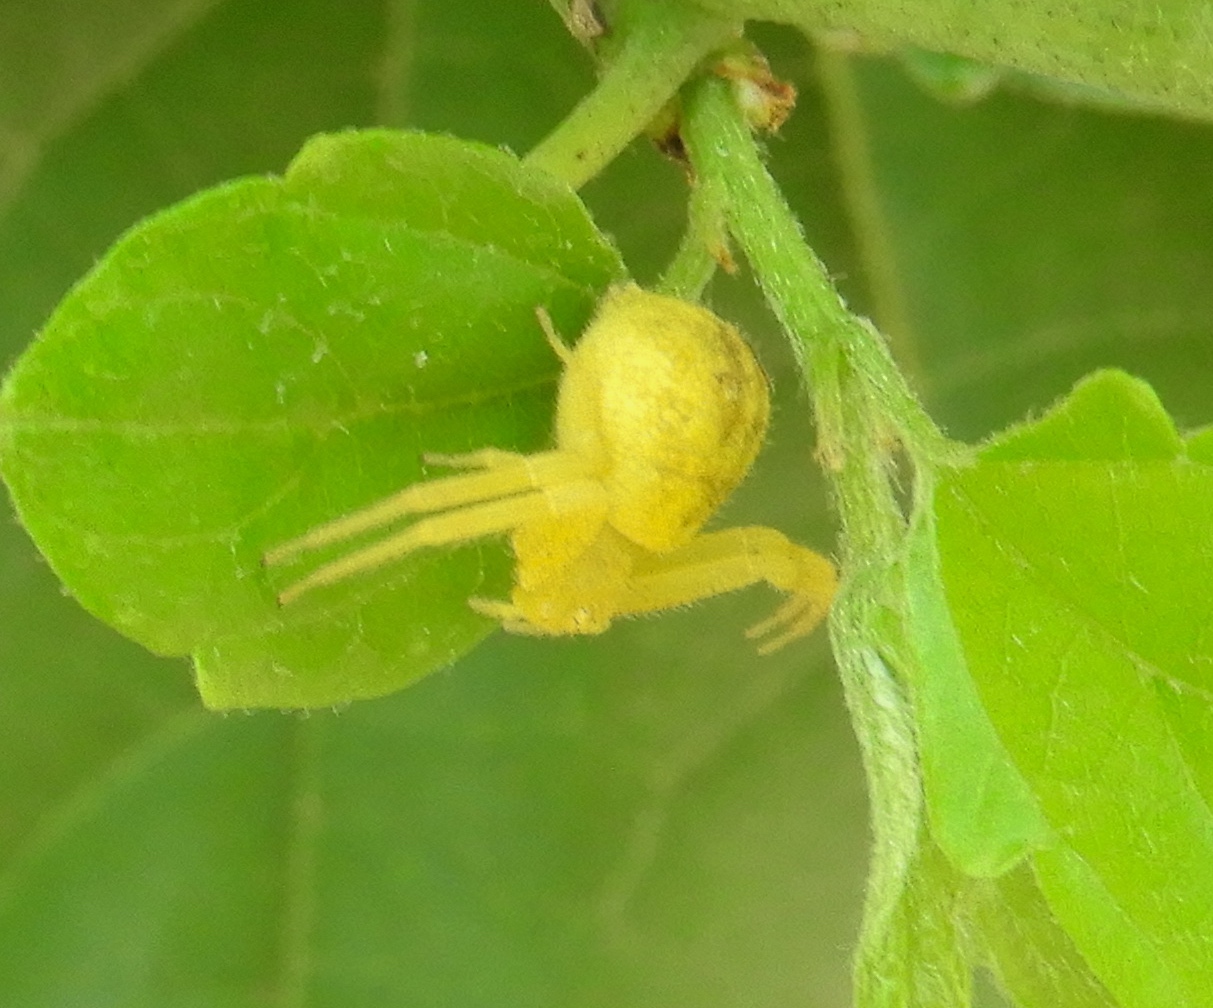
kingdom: Animalia
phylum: Arthropoda
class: Arachnida
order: Araneae
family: Thomisidae
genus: Misumena
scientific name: Misumena vatia
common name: Goldenrod crab spider
